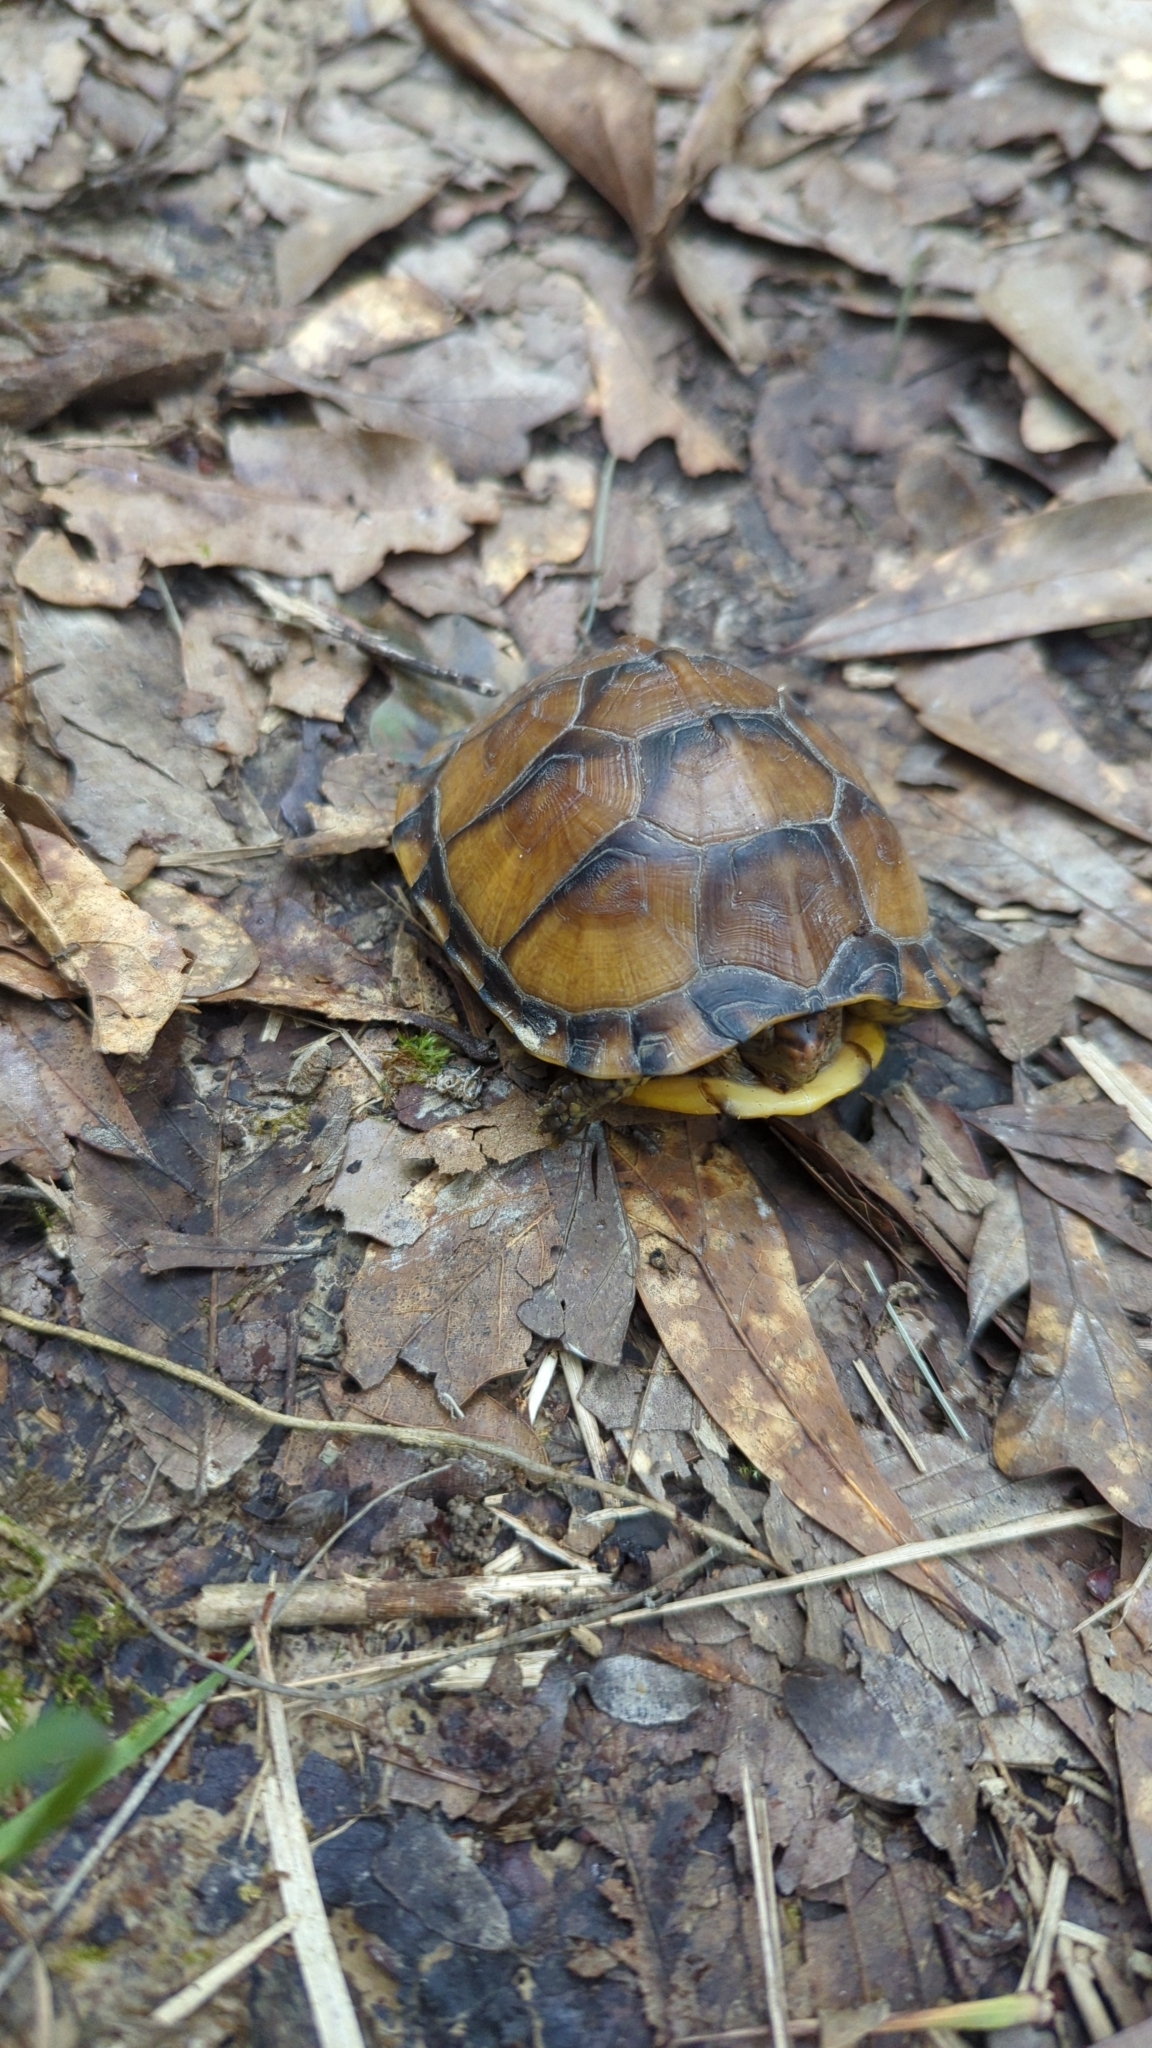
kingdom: Animalia
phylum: Chordata
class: Testudines
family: Emydidae
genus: Terrapene
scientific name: Terrapene carolina
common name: Common box turtle
